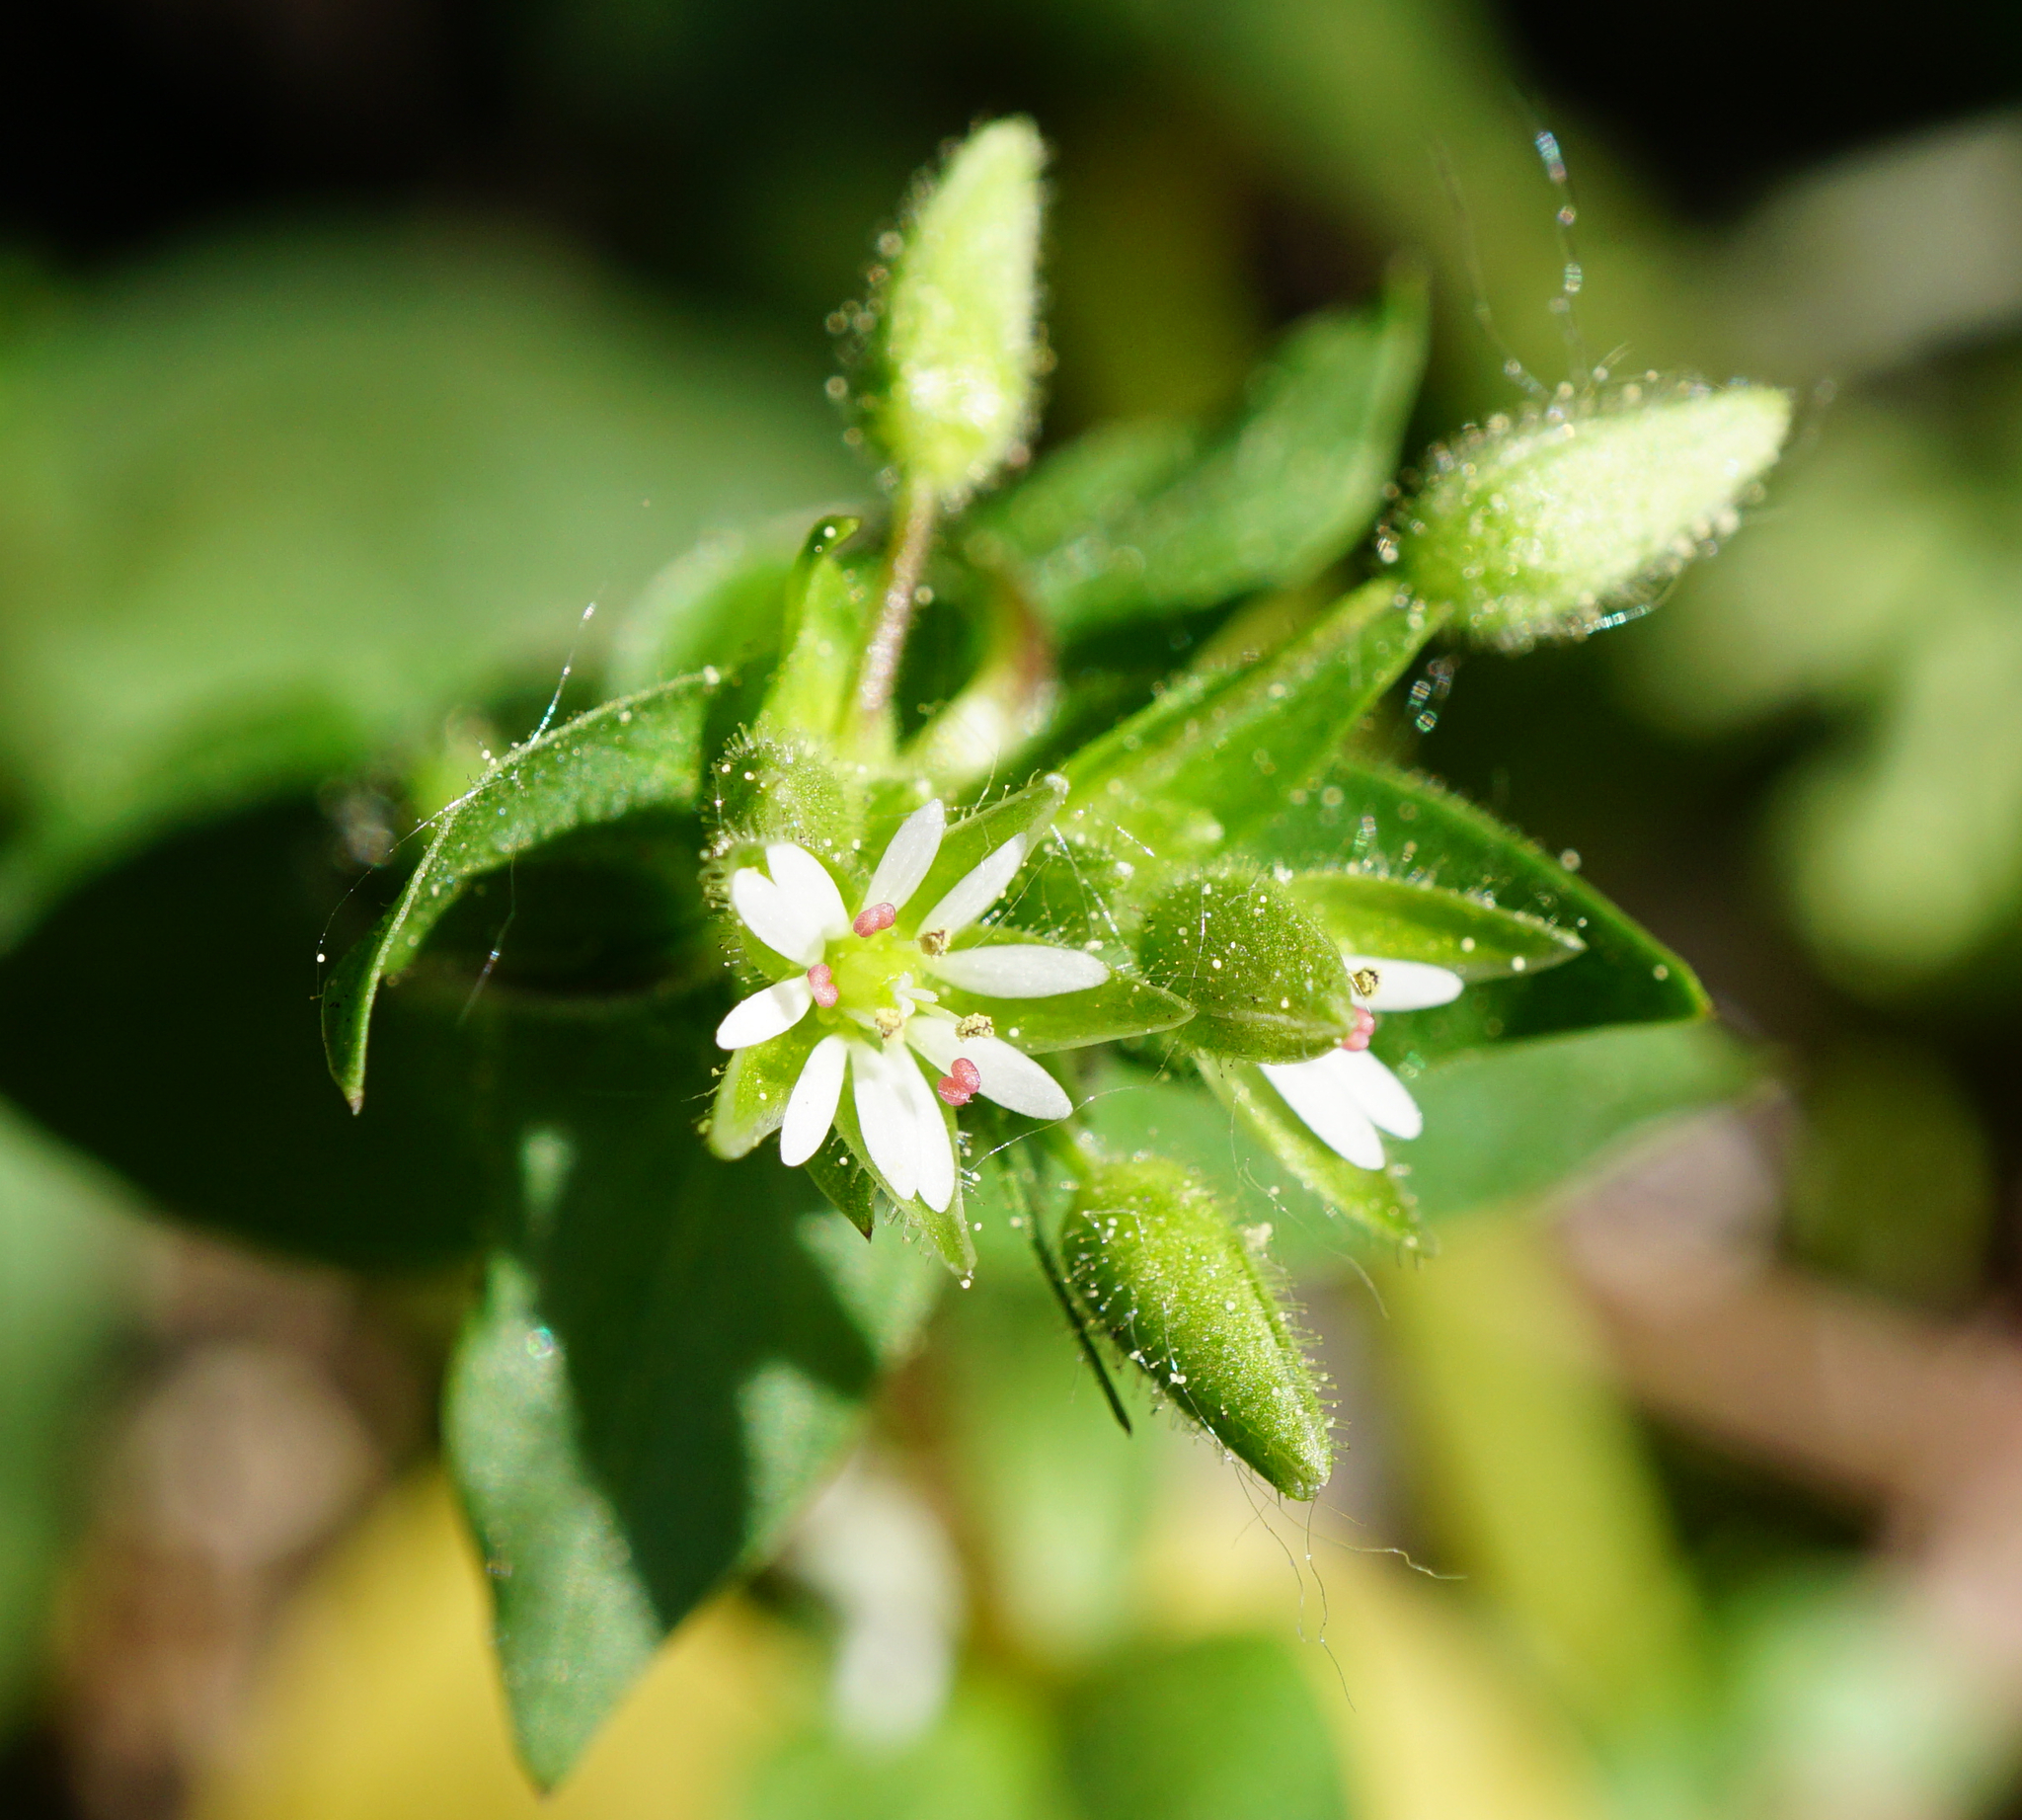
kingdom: Plantae
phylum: Tracheophyta
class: Magnoliopsida
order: Caryophyllales
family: Caryophyllaceae
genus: Stellaria
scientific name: Stellaria media
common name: Common chickweed
